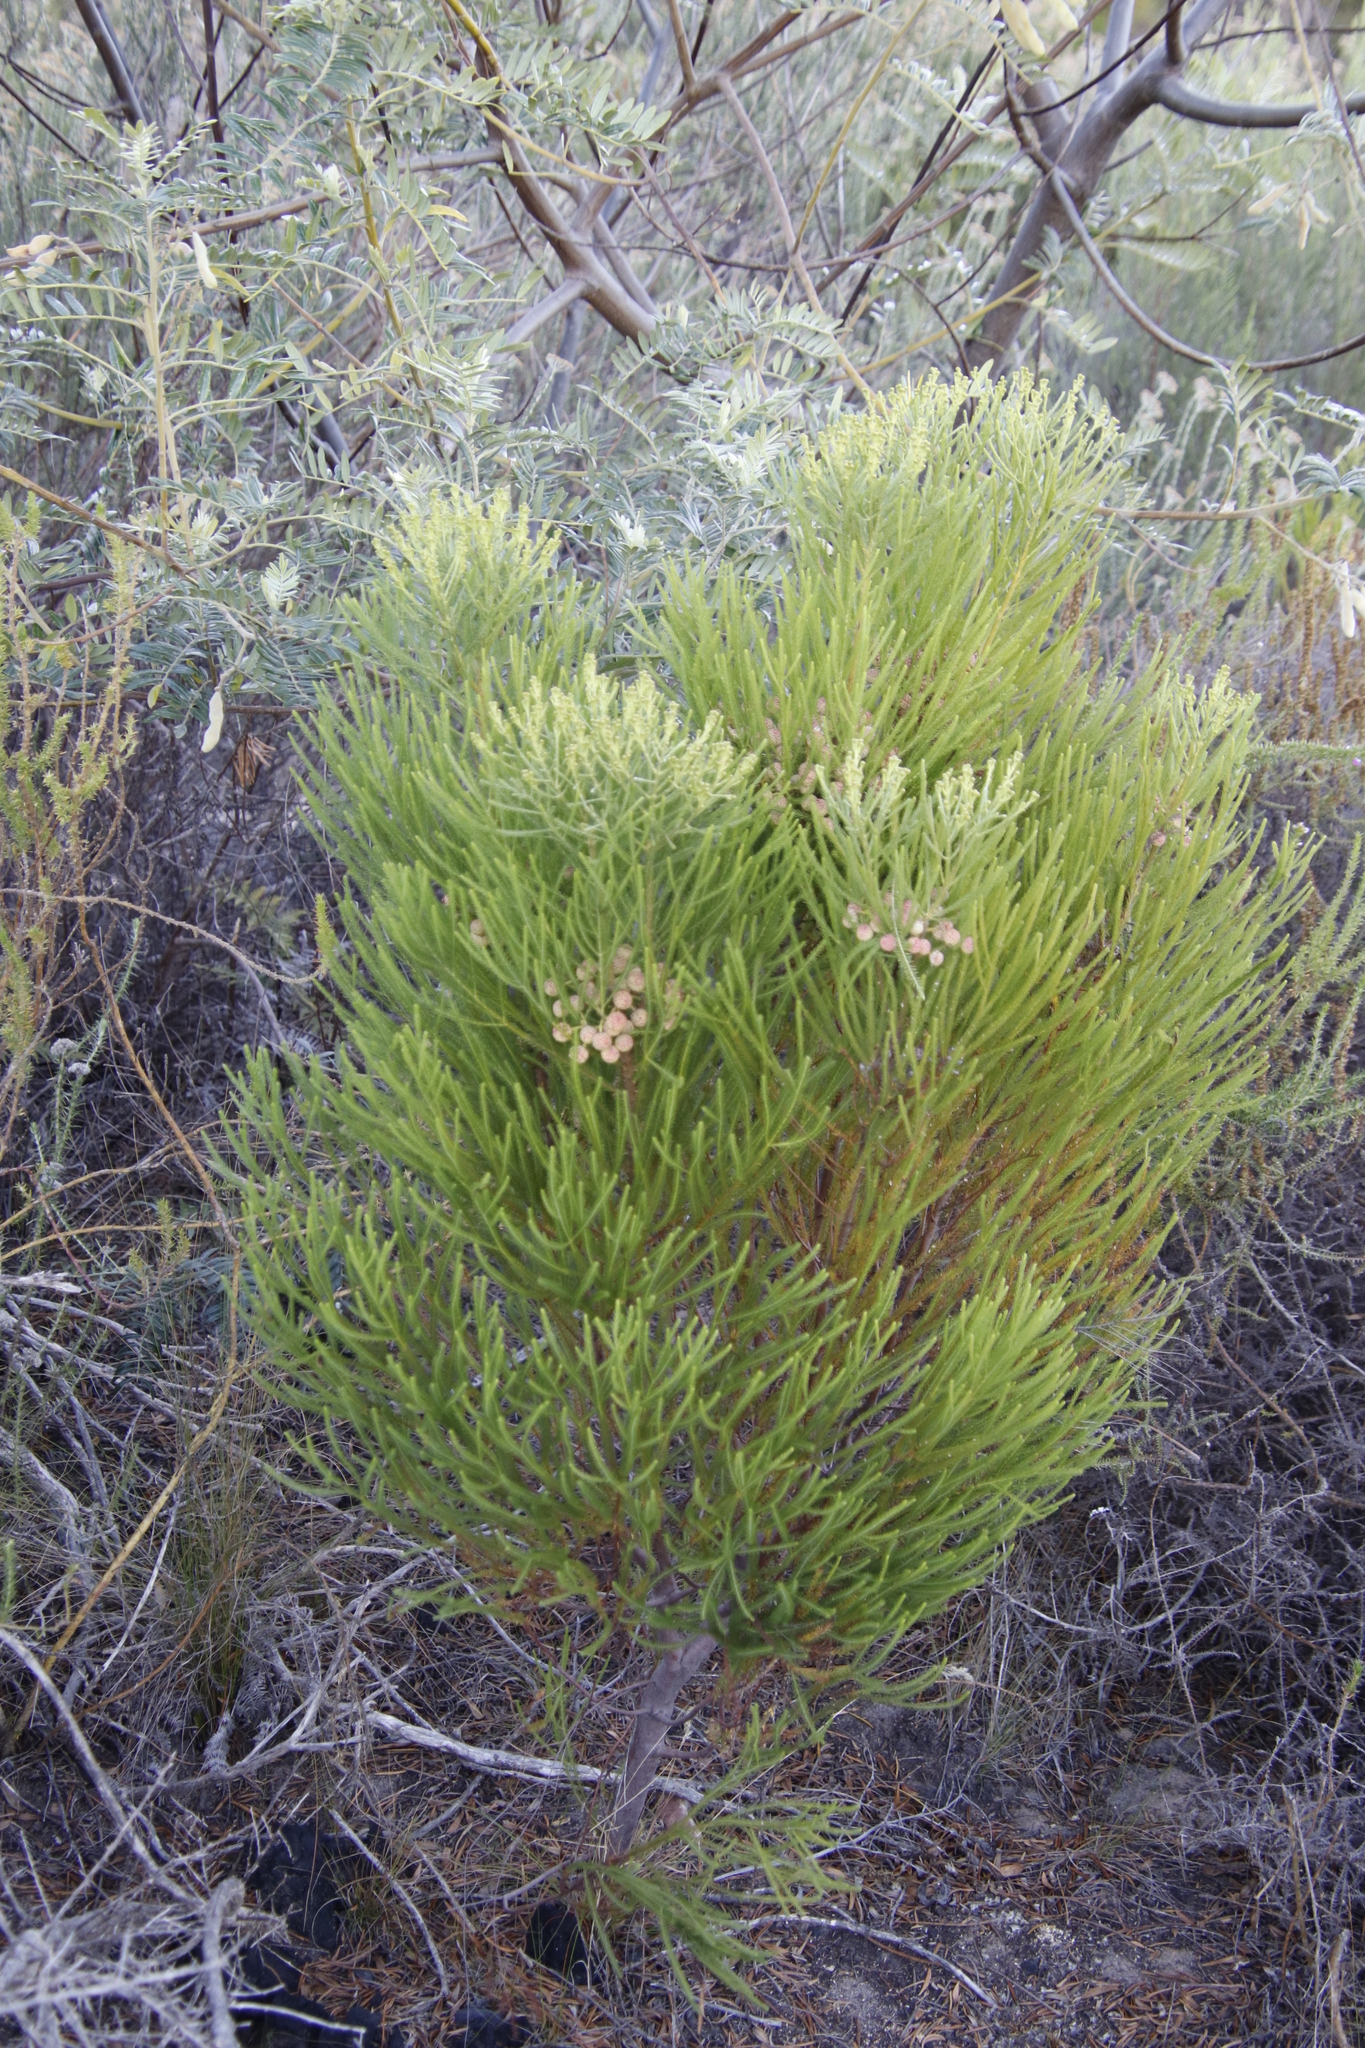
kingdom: Plantae
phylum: Tracheophyta
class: Magnoliopsida
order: Bruniales
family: Bruniaceae
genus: Berzelia
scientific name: Berzelia lanuginosa
